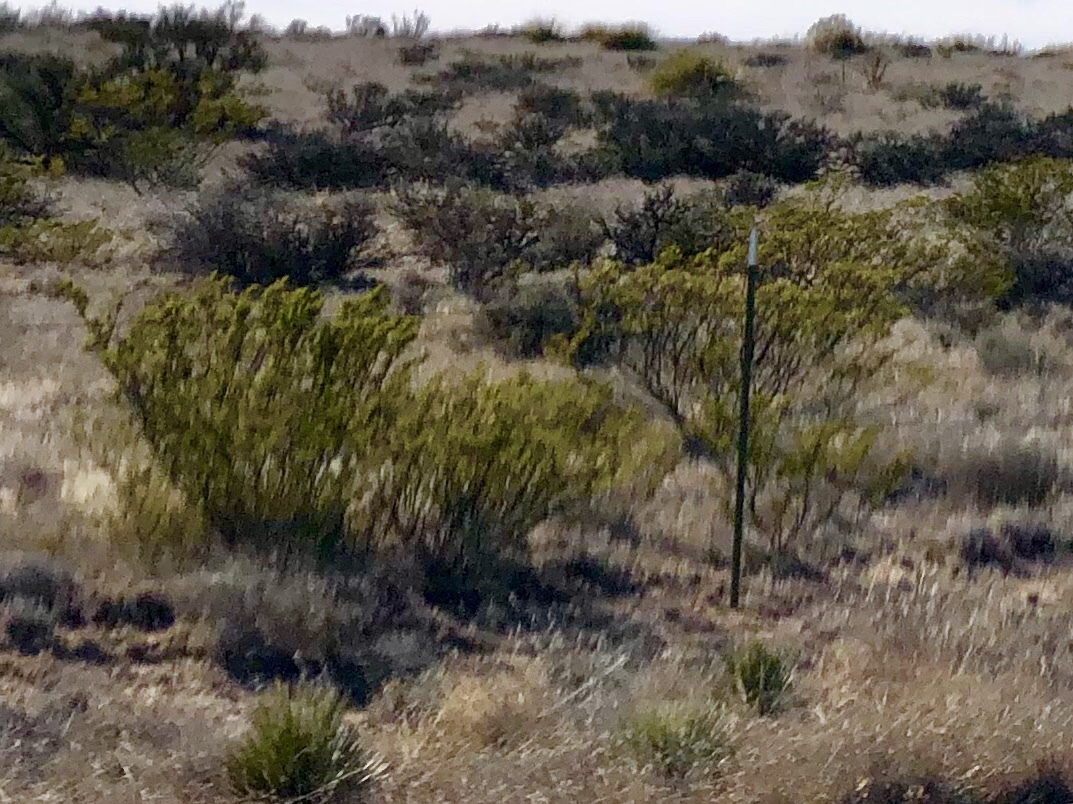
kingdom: Plantae
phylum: Tracheophyta
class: Magnoliopsida
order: Zygophyllales
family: Zygophyllaceae
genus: Larrea
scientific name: Larrea tridentata
